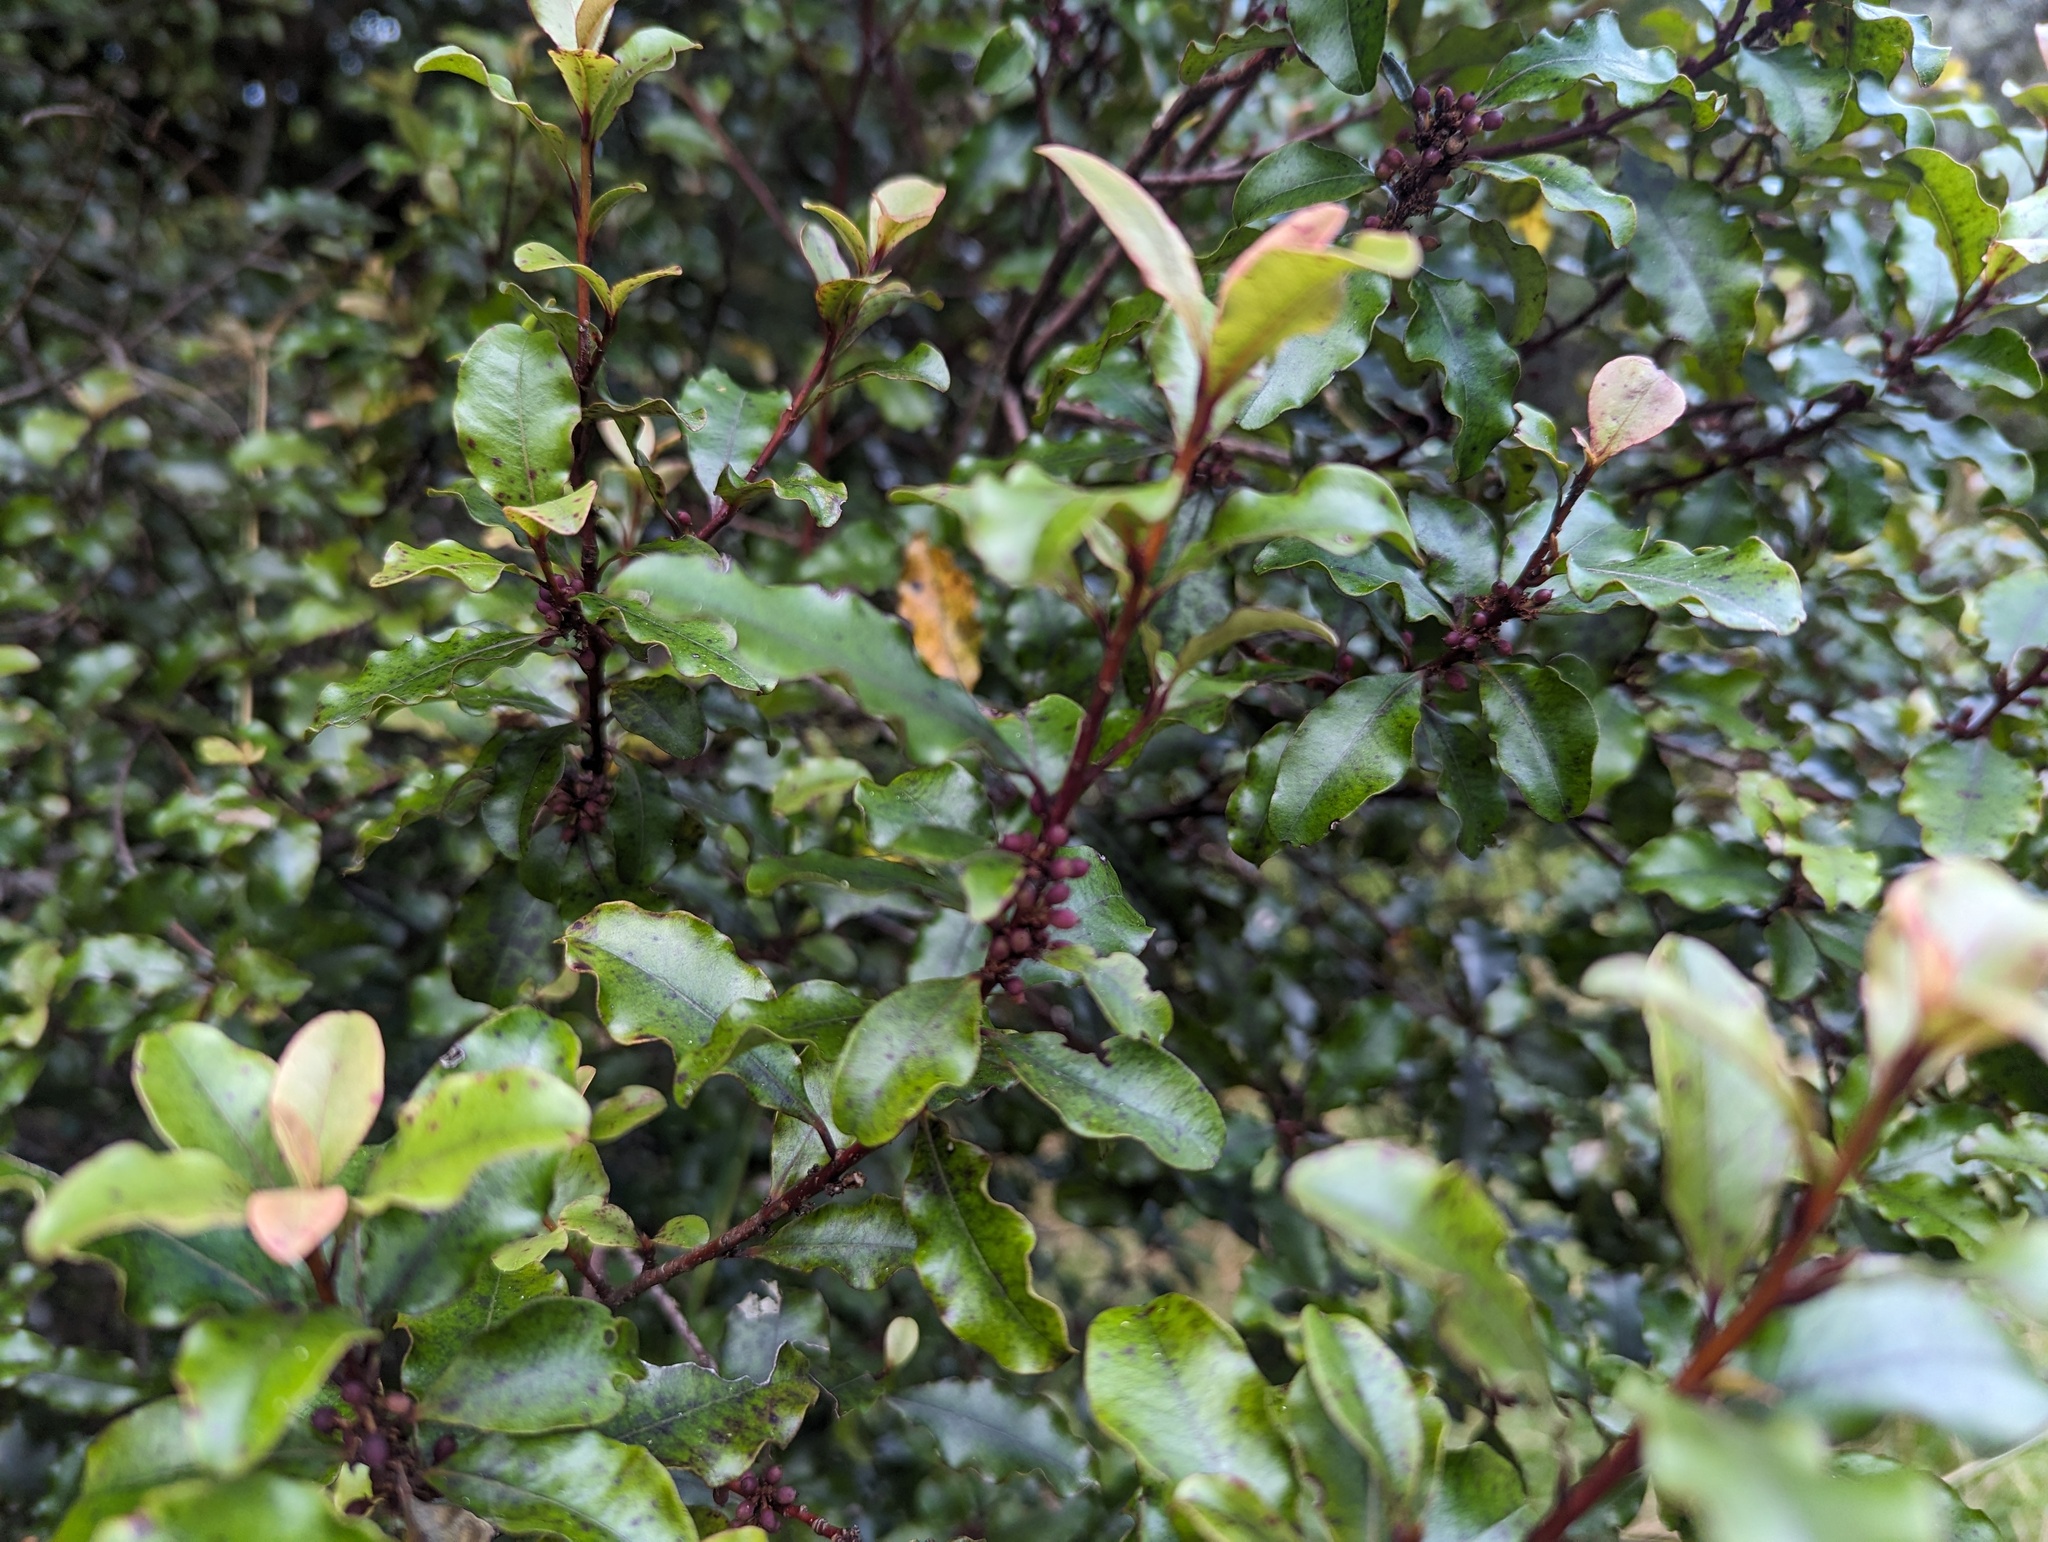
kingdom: Plantae
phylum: Tracheophyta
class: Magnoliopsida
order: Ericales
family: Primulaceae
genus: Myrsine
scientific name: Myrsine australis
